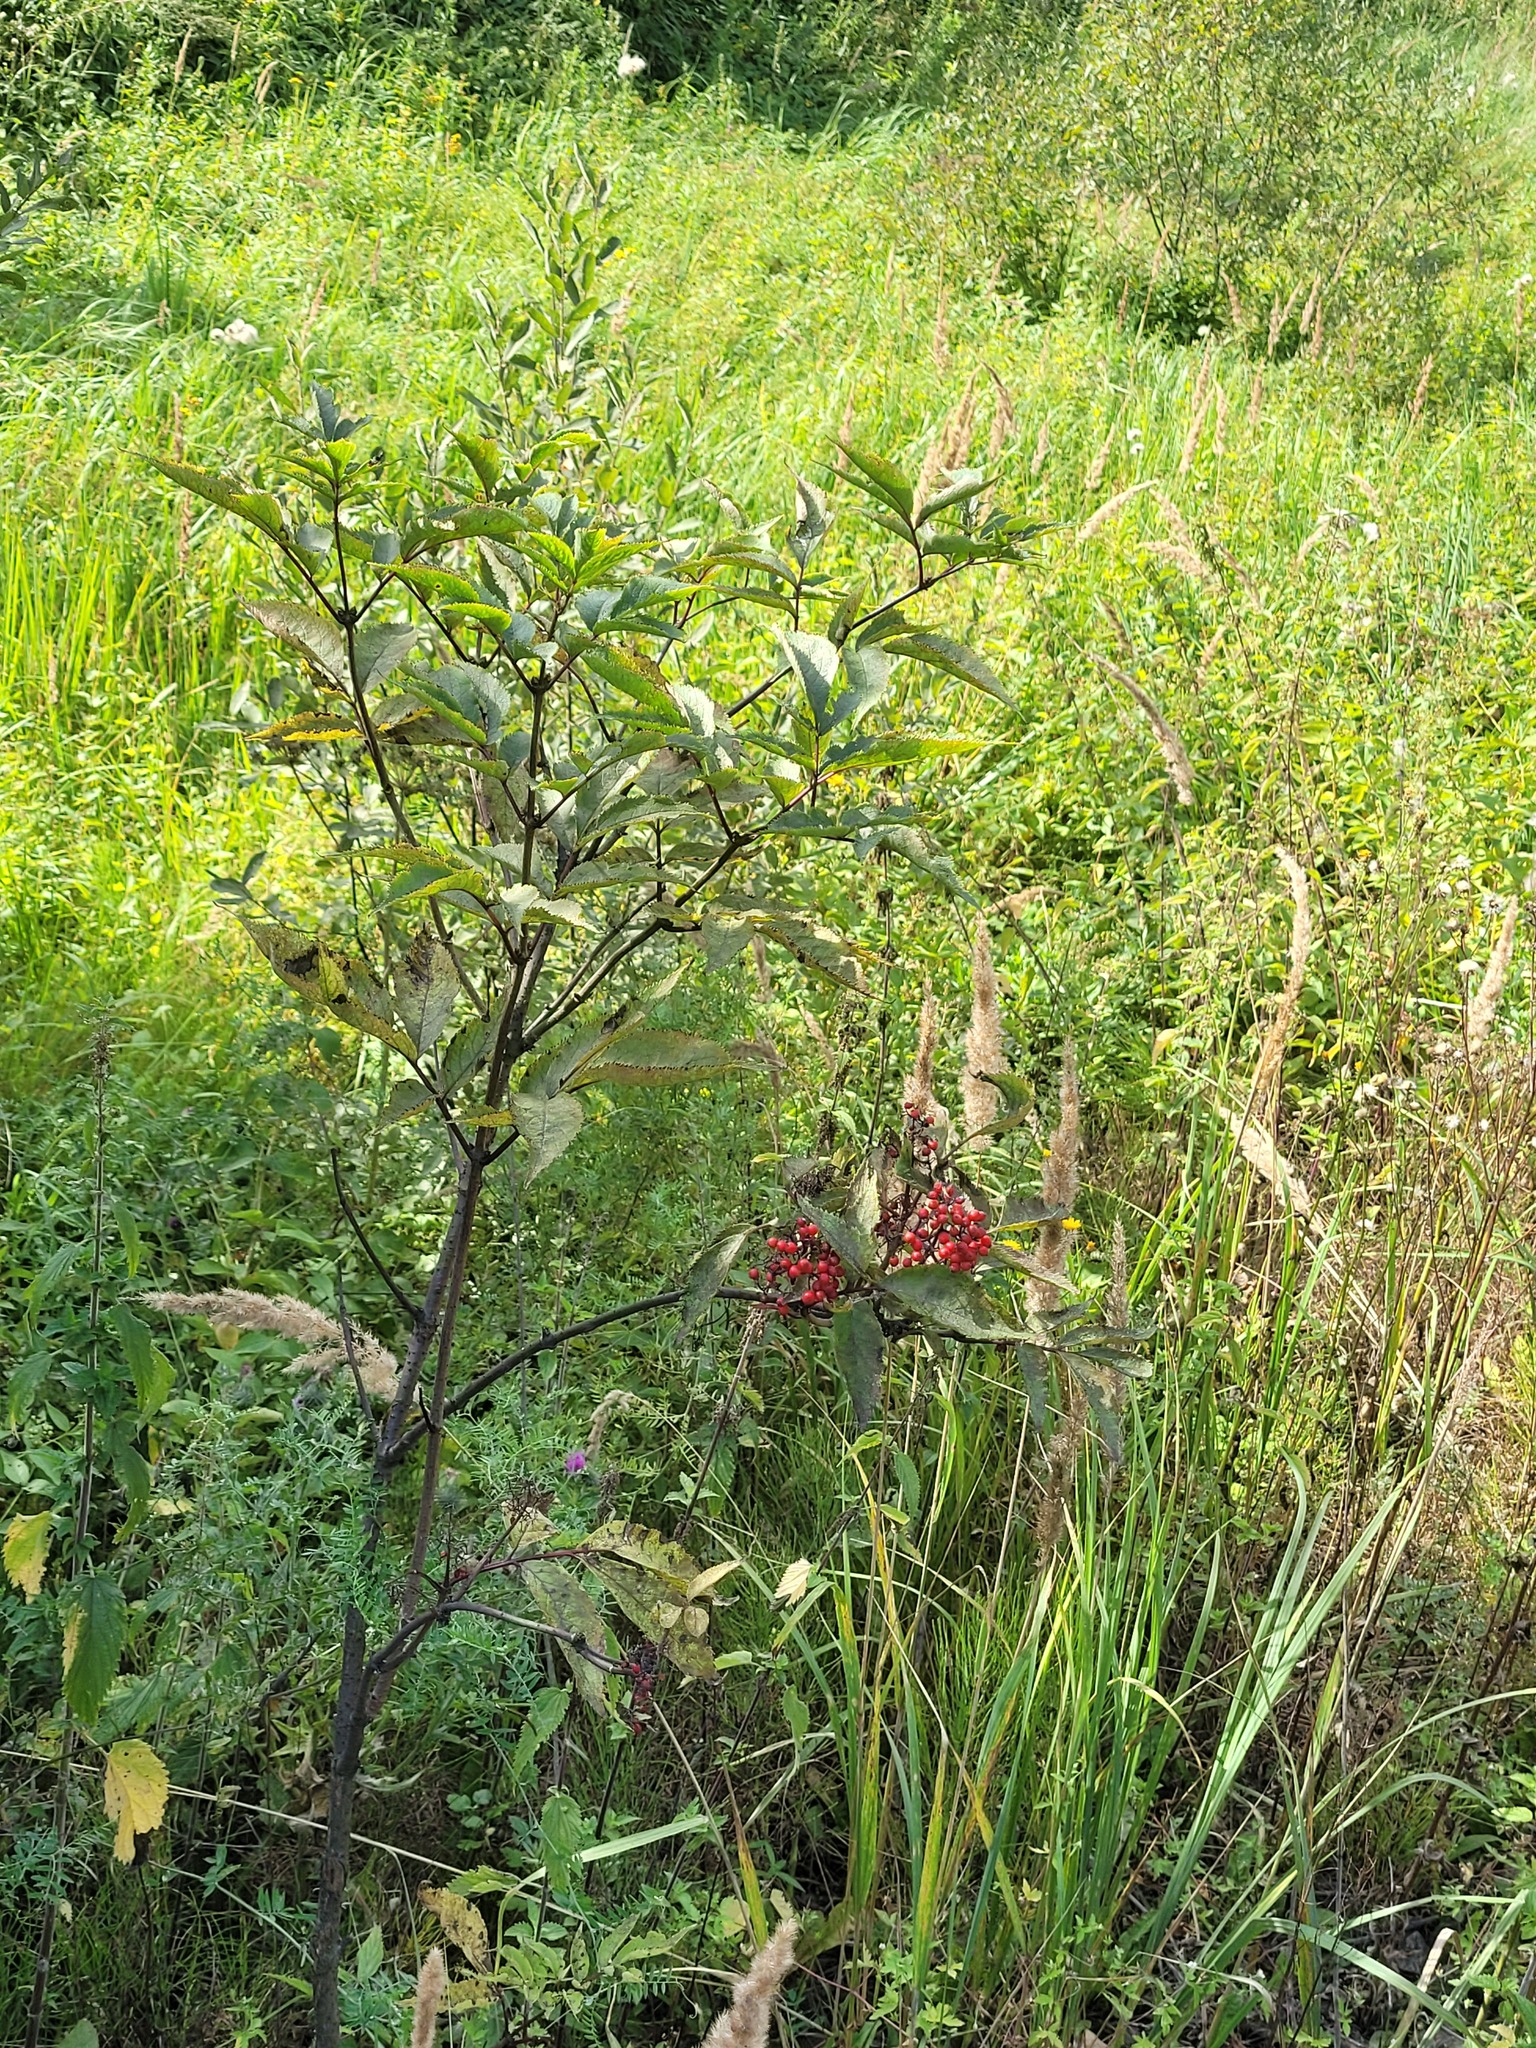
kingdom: Plantae
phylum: Tracheophyta
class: Magnoliopsida
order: Dipsacales
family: Viburnaceae
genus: Sambucus
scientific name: Sambucus racemosa
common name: Red-berried elder
